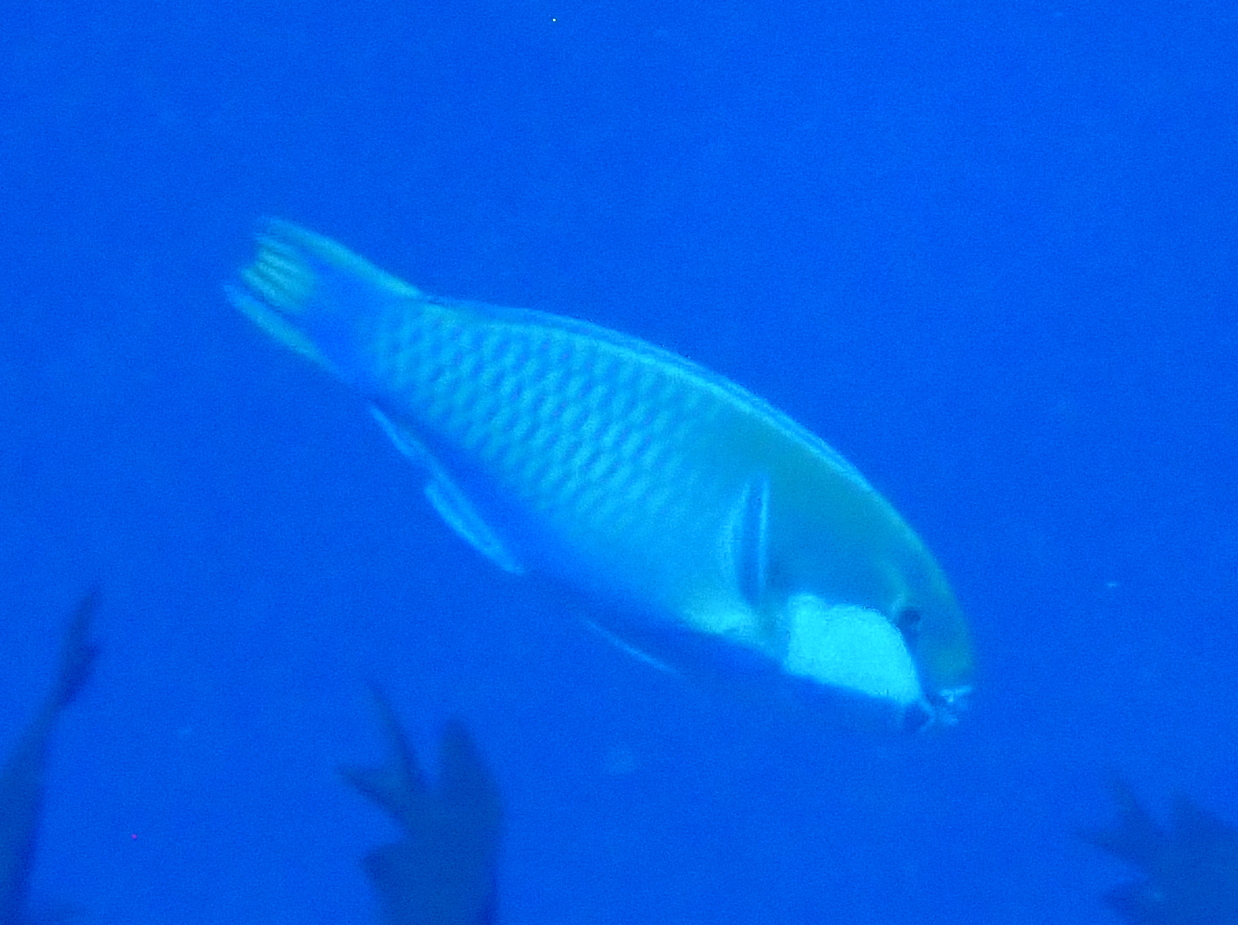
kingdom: Animalia
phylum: Chordata
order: Perciformes
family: Scaridae
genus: Chlorurus
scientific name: Chlorurus bleekeri
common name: Bleeker's parrotfish
